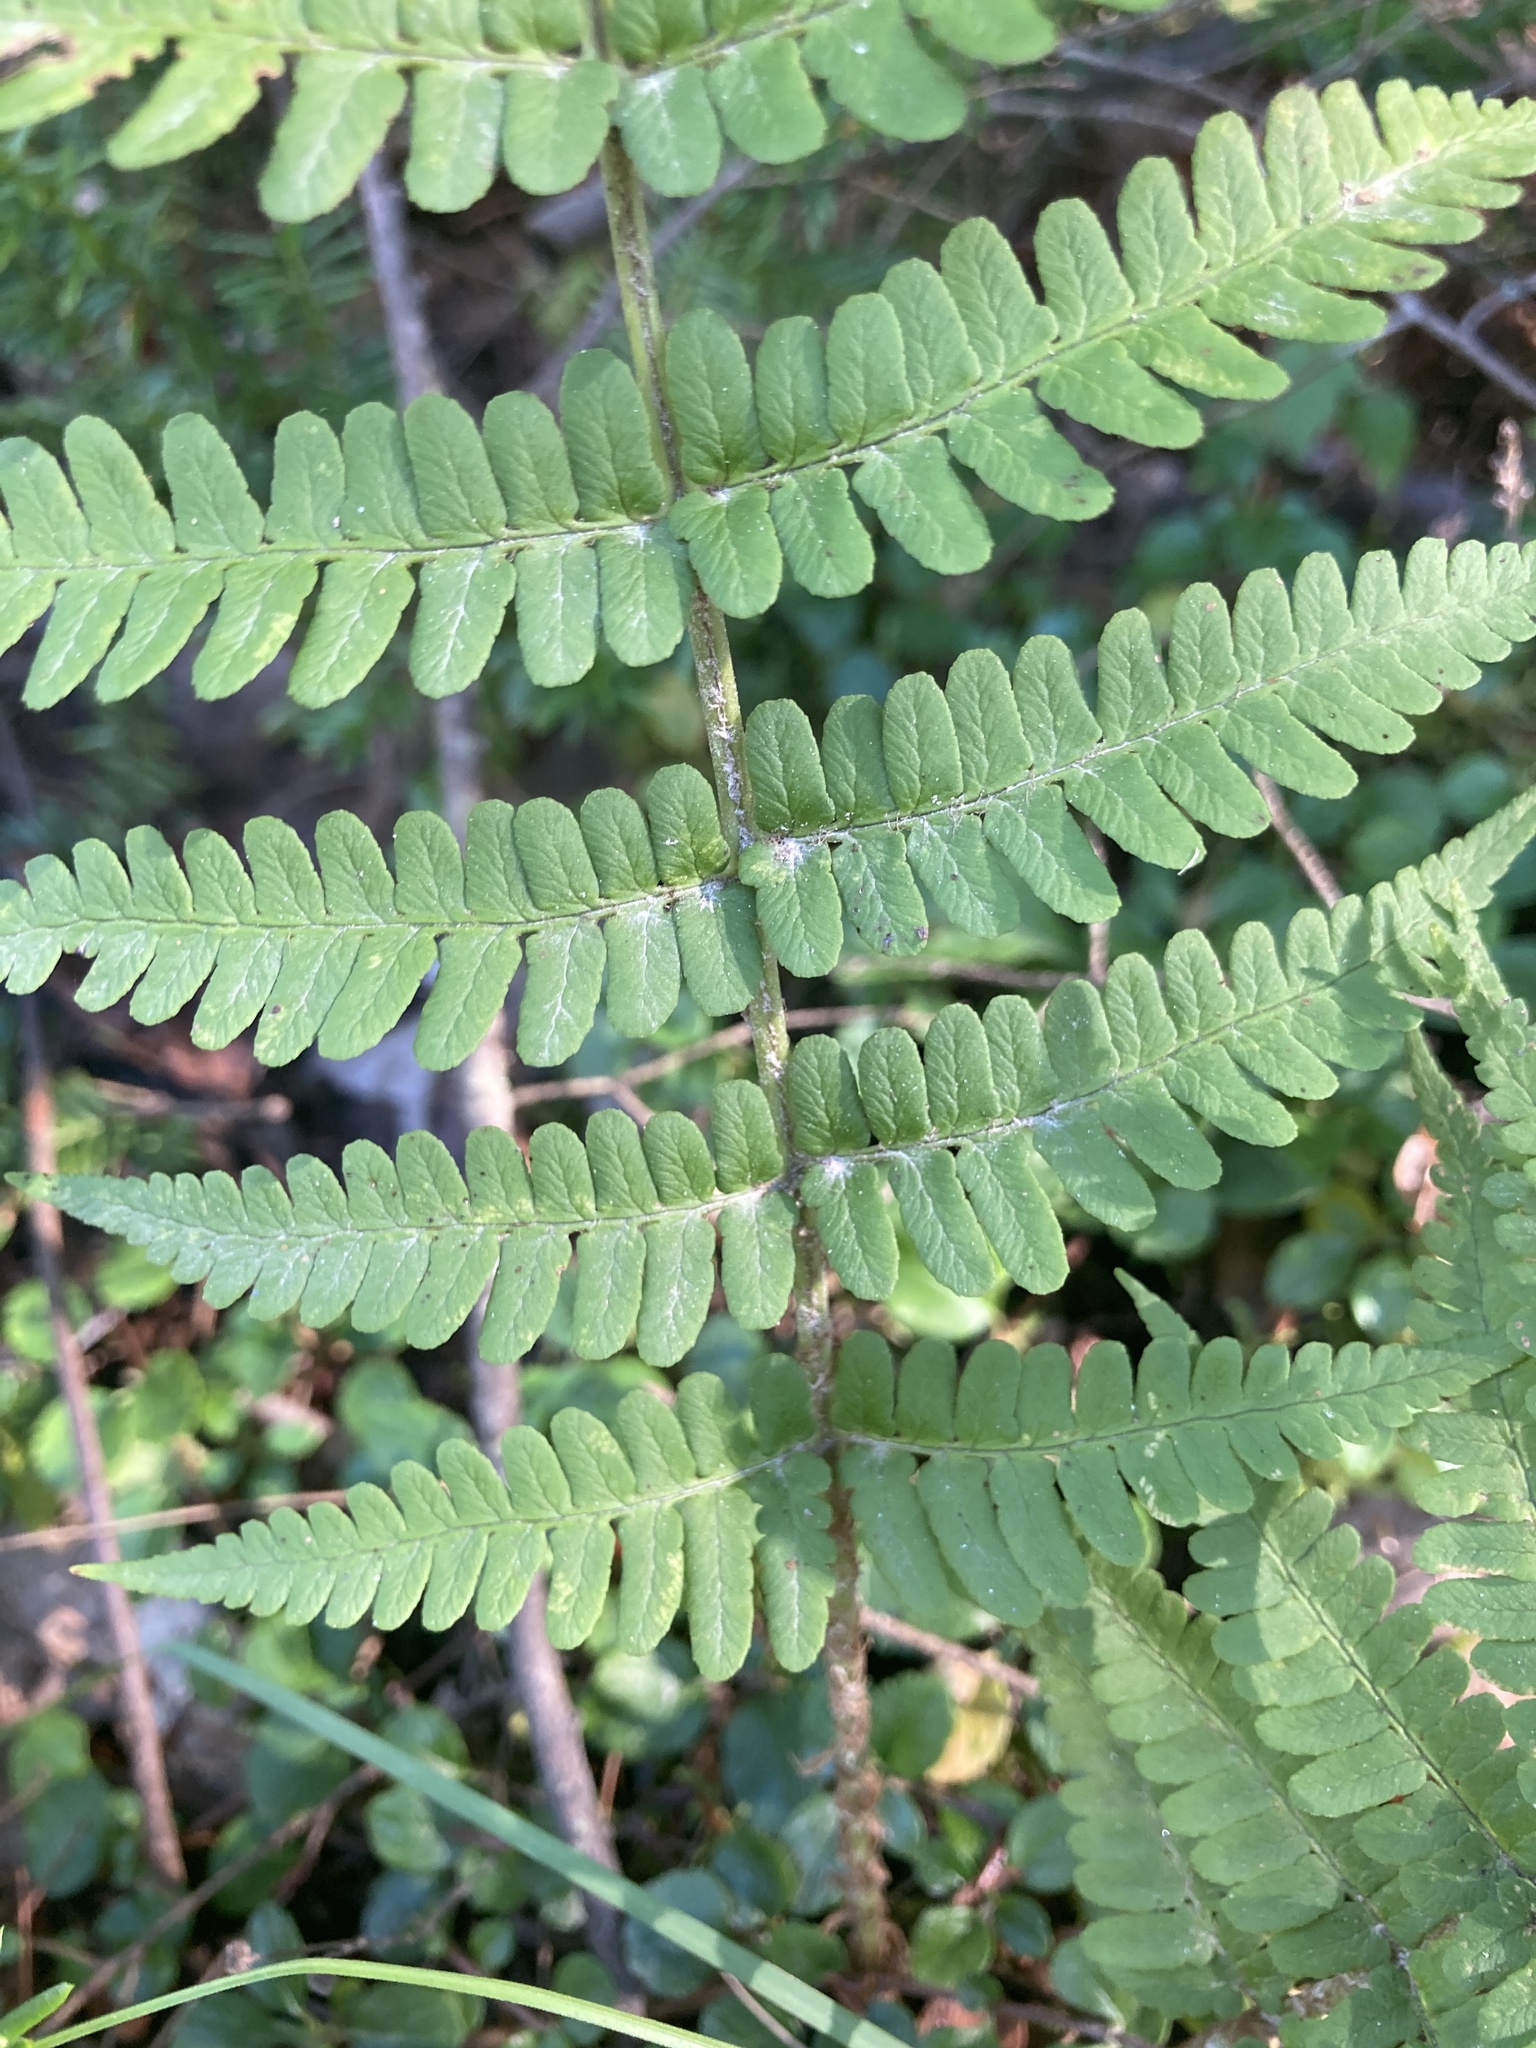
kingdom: Plantae
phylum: Tracheophyta
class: Polypodiopsida
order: Polypodiales
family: Dryopteridaceae
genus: Dryopteris
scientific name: Dryopteris marginalis
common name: Marginal wood fern
